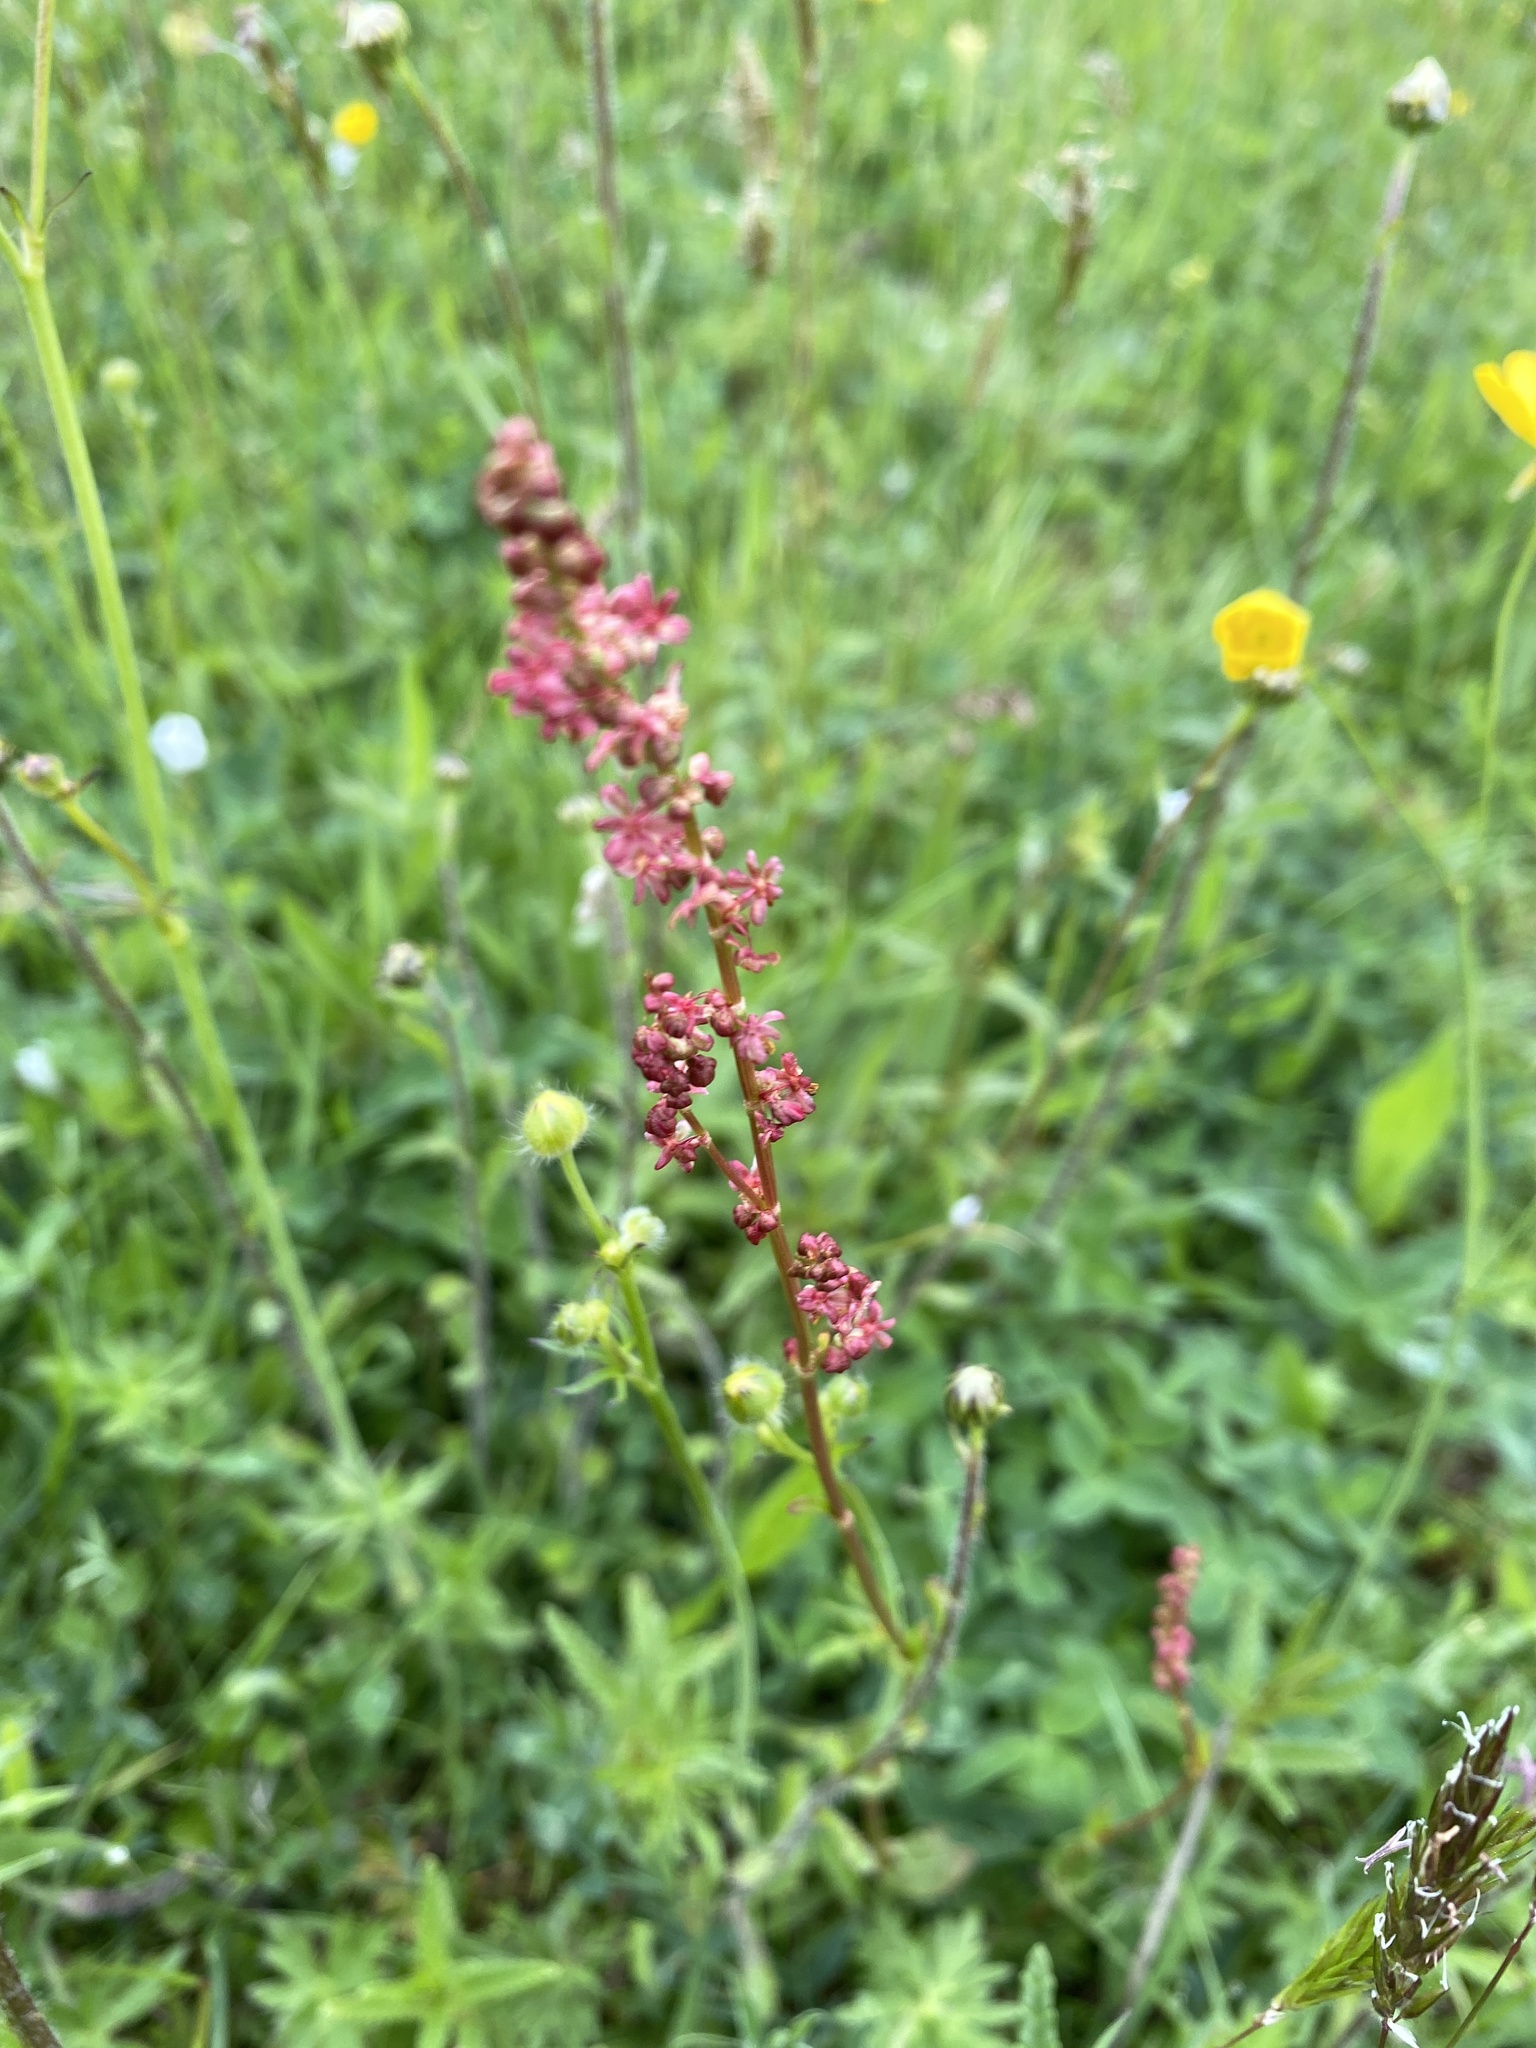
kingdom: Plantae
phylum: Tracheophyta
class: Magnoliopsida
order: Caryophyllales
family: Polygonaceae
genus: Rumex
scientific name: Rumex acetosa
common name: Garden sorrel
